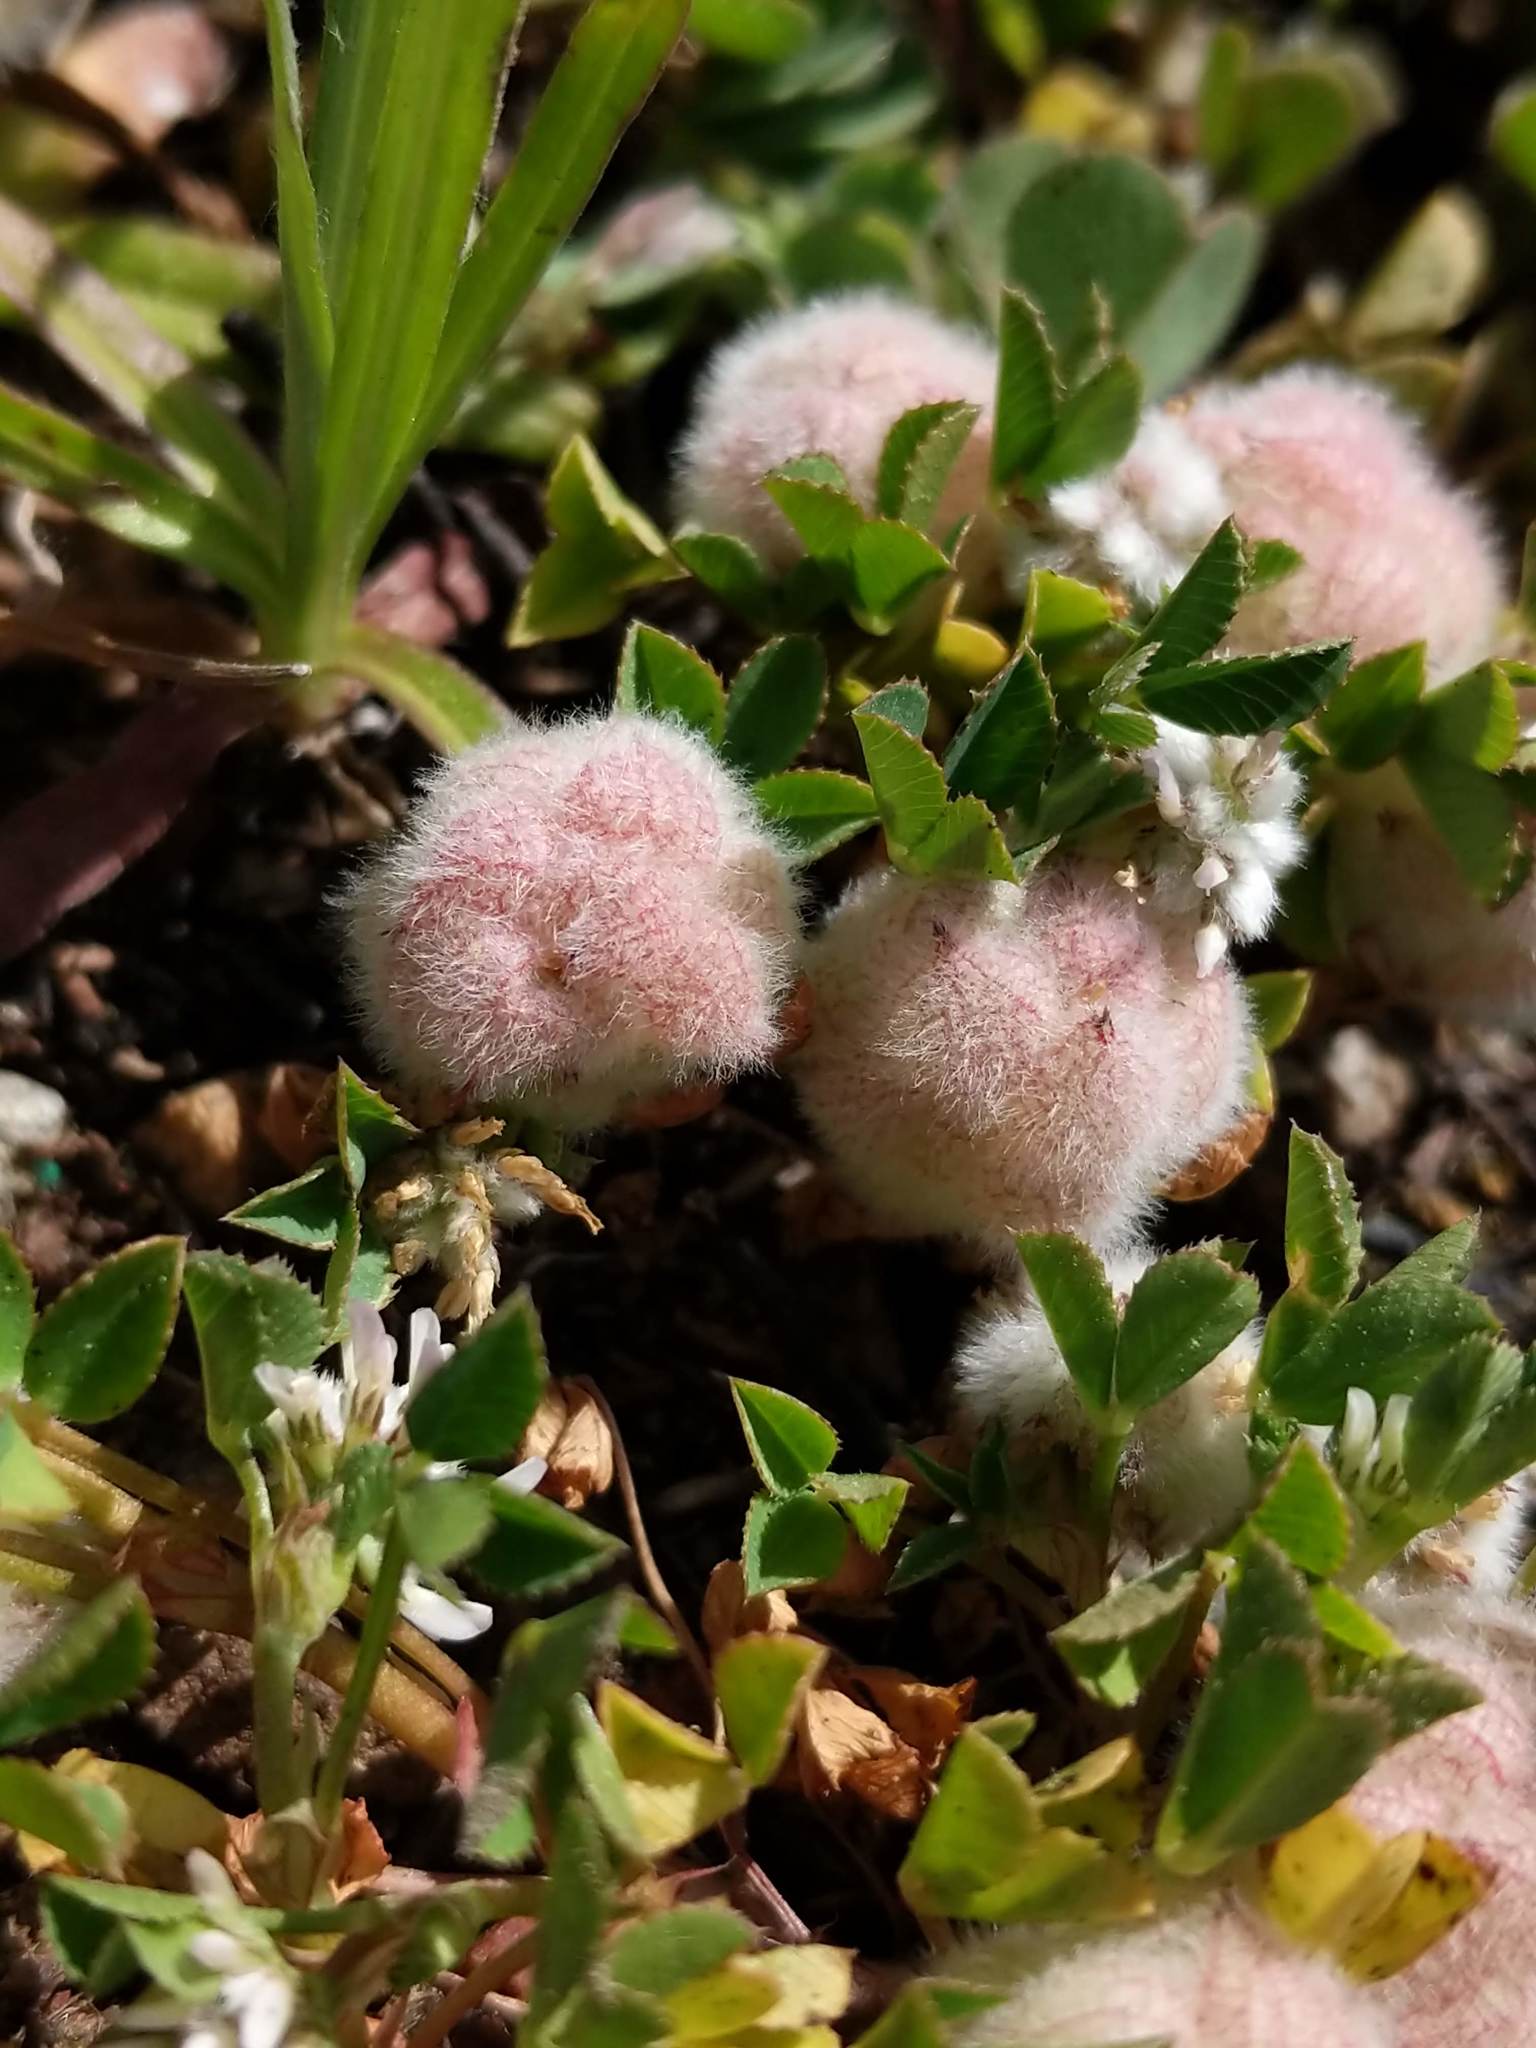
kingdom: Plantae
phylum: Tracheophyta
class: Magnoliopsida
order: Fabales
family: Fabaceae
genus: Trifolium
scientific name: Trifolium tomentosum
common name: Woolly clover
